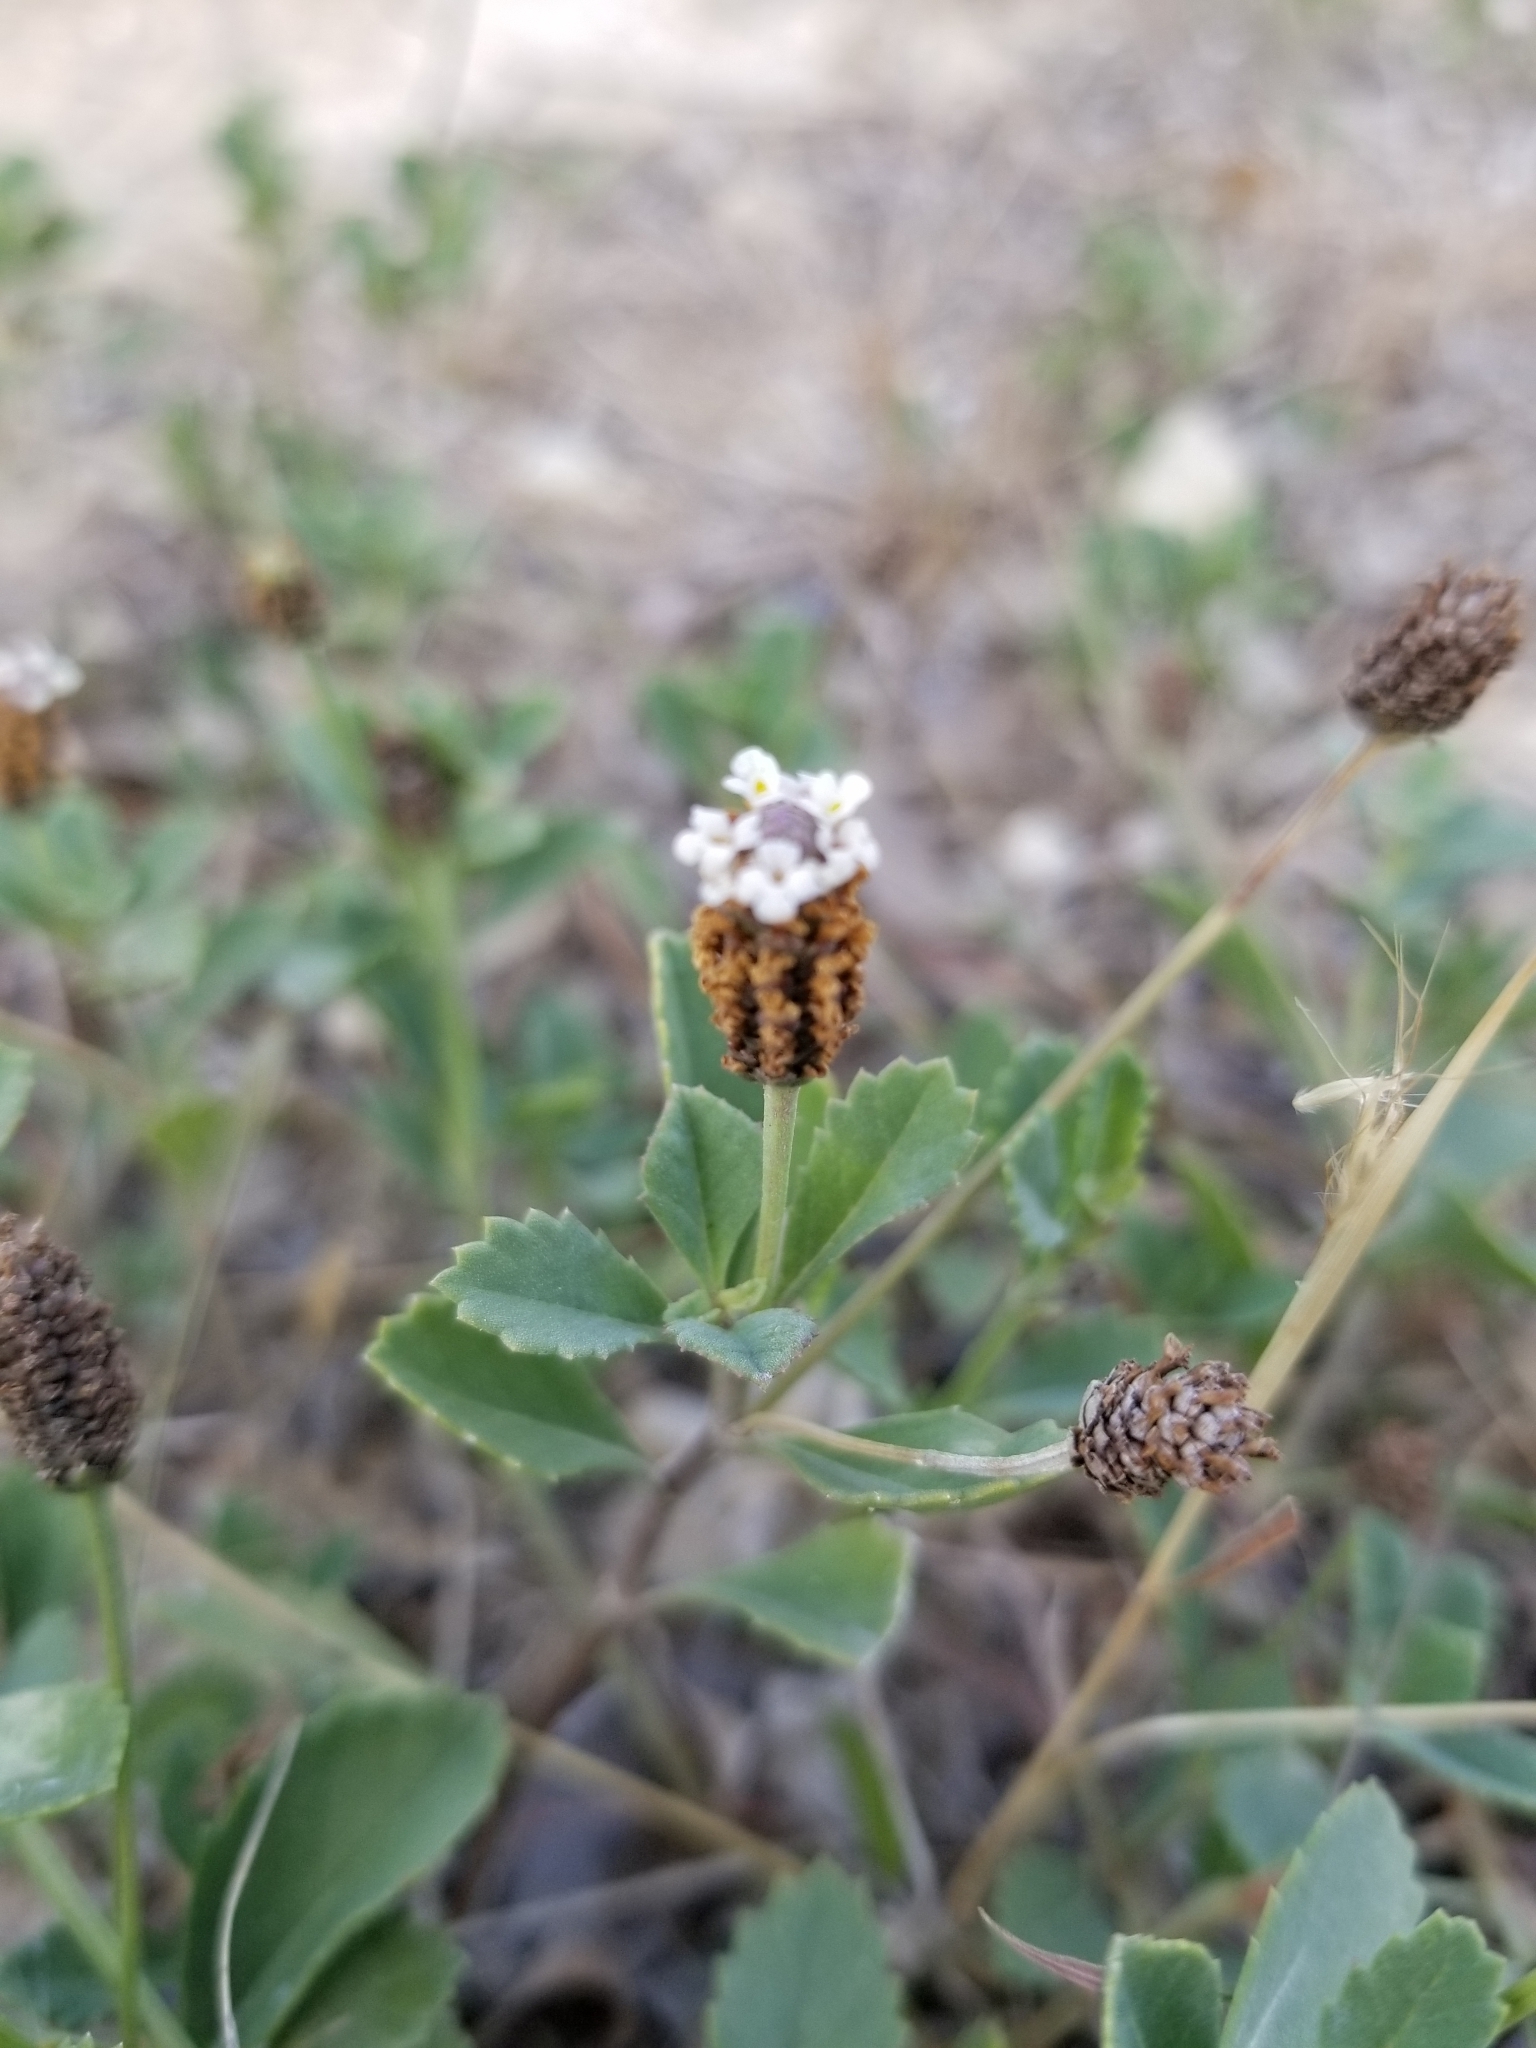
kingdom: Plantae
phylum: Tracheophyta
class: Magnoliopsida
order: Lamiales
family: Verbenaceae
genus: Phyla
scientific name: Phyla nodiflora
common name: Frogfruit
